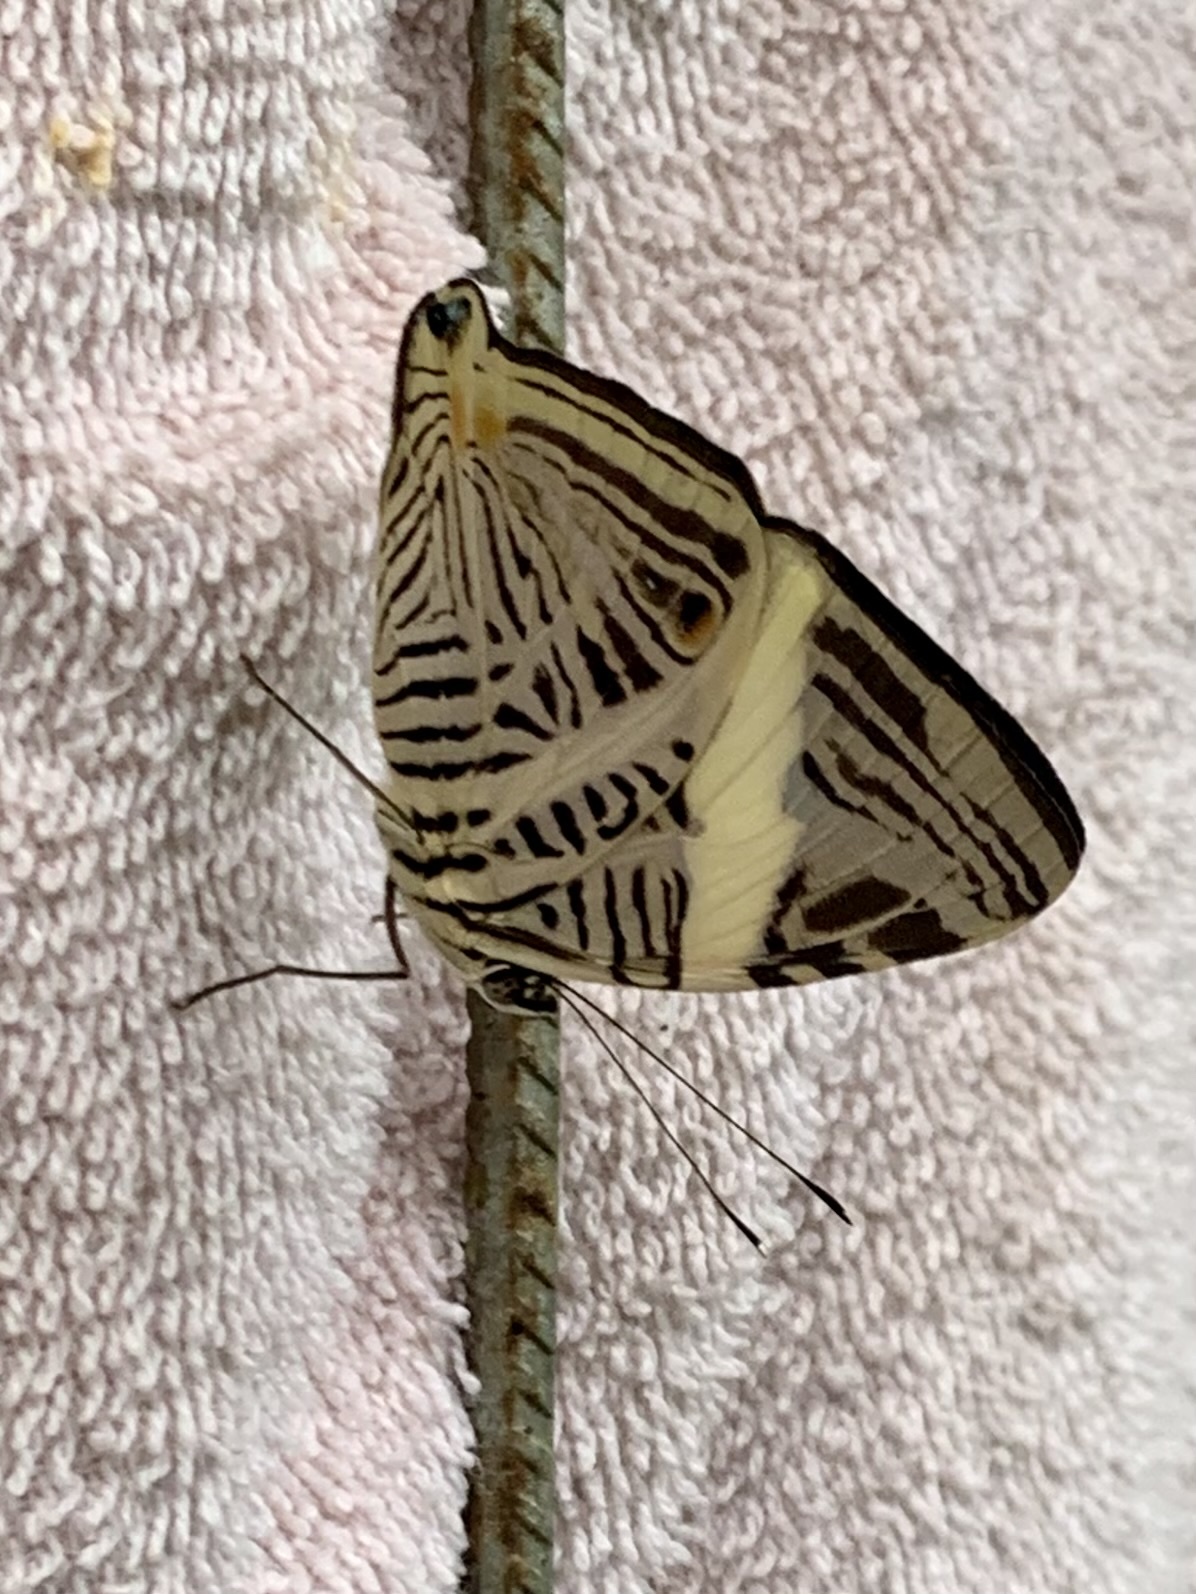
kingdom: Animalia
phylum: Arthropoda
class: Insecta
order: Lepidoptera
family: Nymphalidae
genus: Colobura
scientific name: Colobura dirce
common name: Dirce beauty
